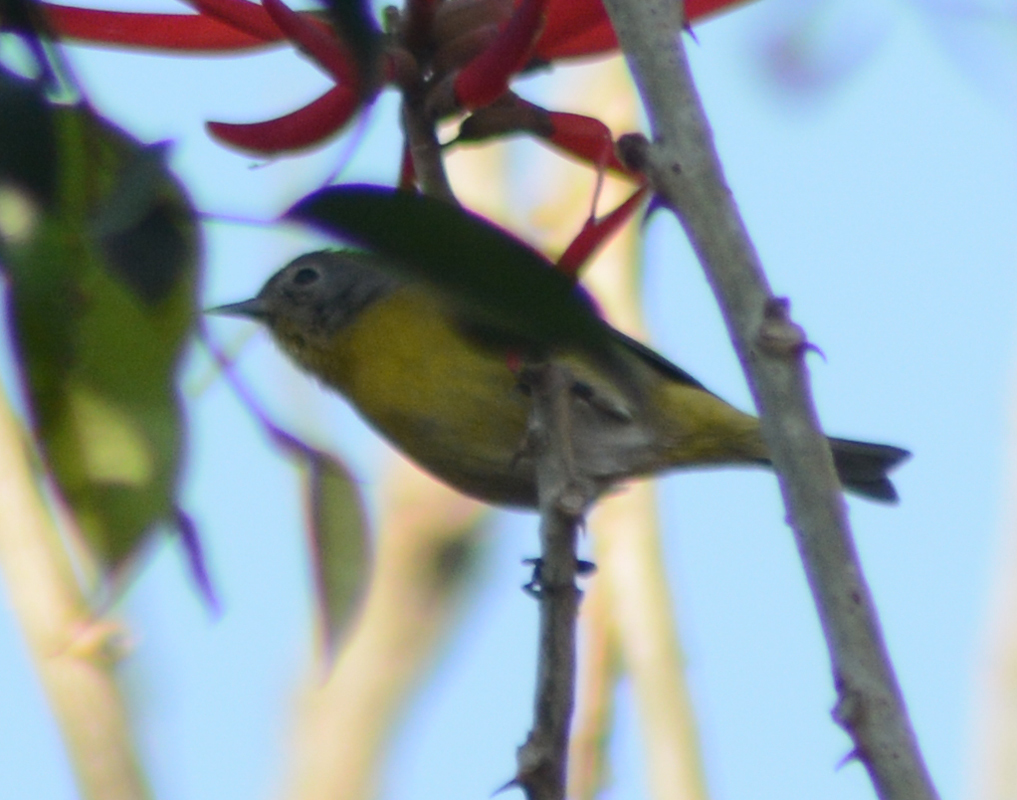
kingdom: Animalia
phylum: Chordata
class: Aves
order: Passeriformes
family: Parulidae
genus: Leiothlypis
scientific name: Leiothlypis ruficapilla
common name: Nashville warbler
